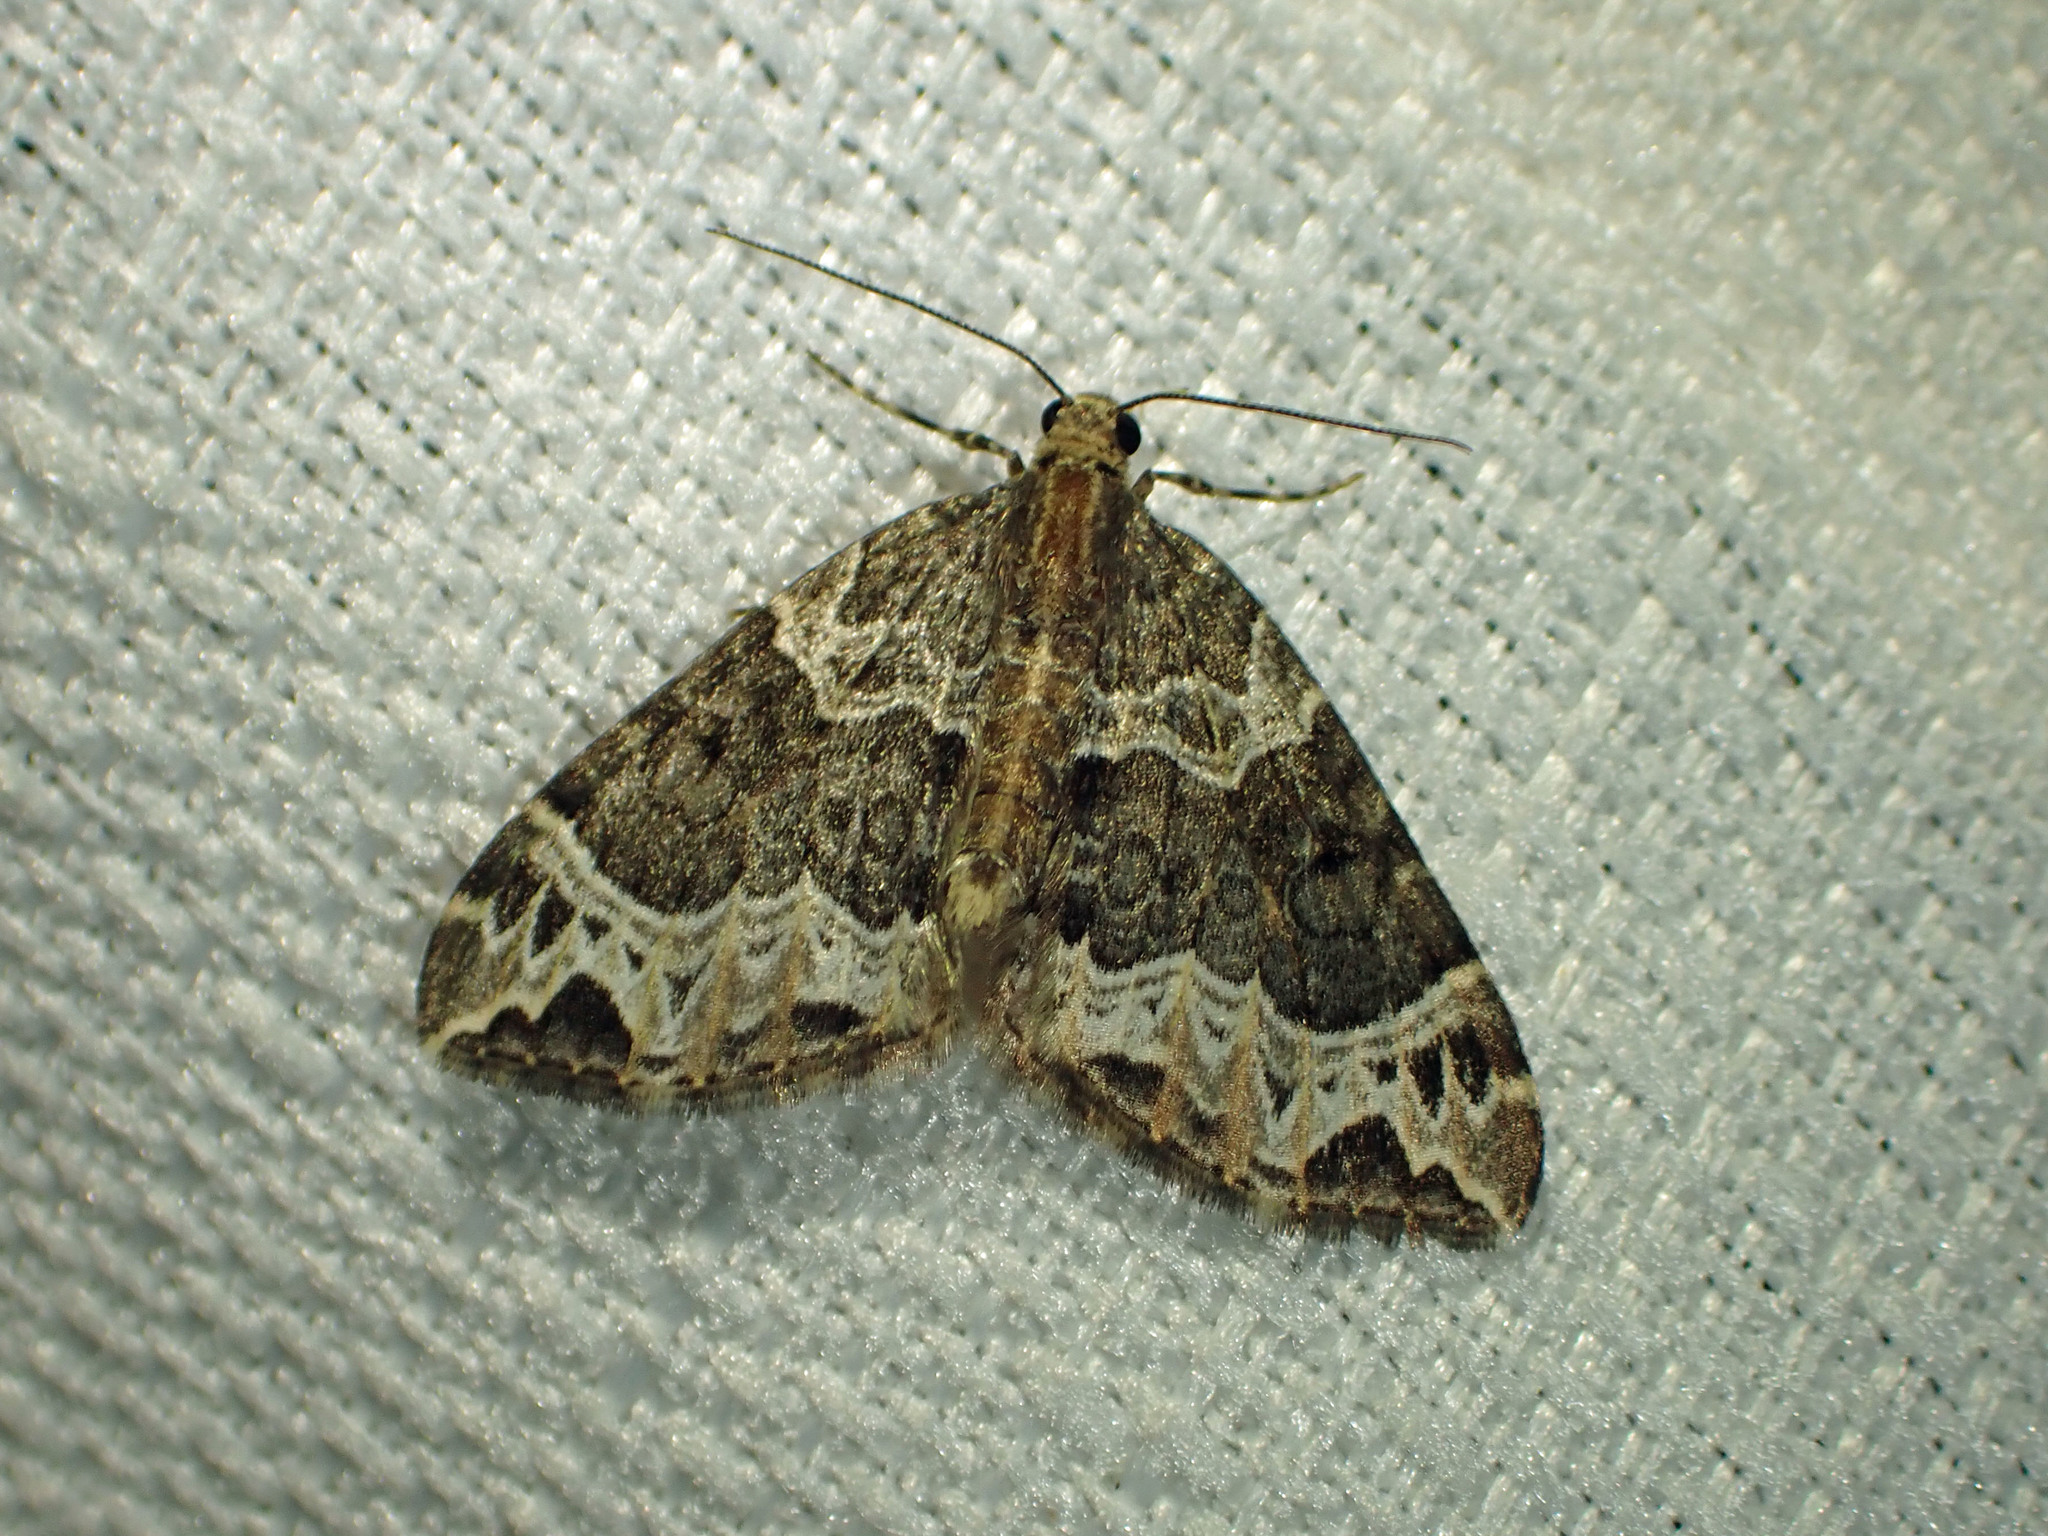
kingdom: Animalia
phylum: Arthropoda
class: Insecta
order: Lepidoptera
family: Geometridae
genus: Ecliptopera
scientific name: Ecliptopera silaceata
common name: Small phoenix
